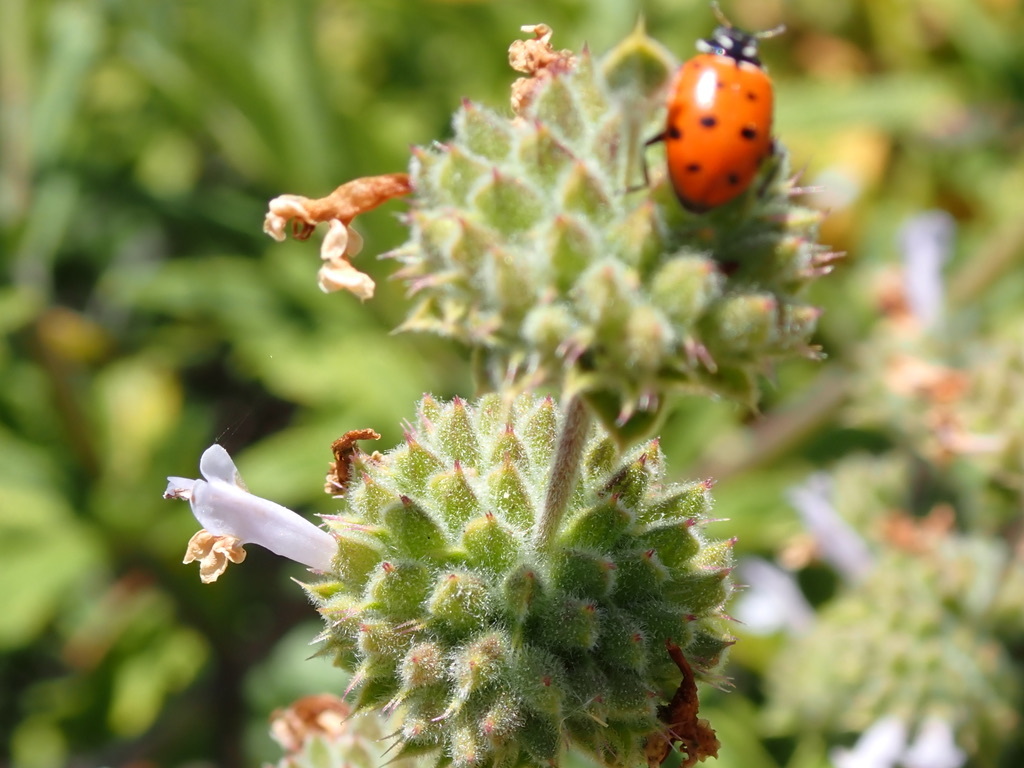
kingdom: Animalia
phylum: Arthropoda
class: Insecta
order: Coleoptera
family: Coccinellidae
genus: Hippodamia
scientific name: Hippodamia convergens
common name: Convergent lady beetle
